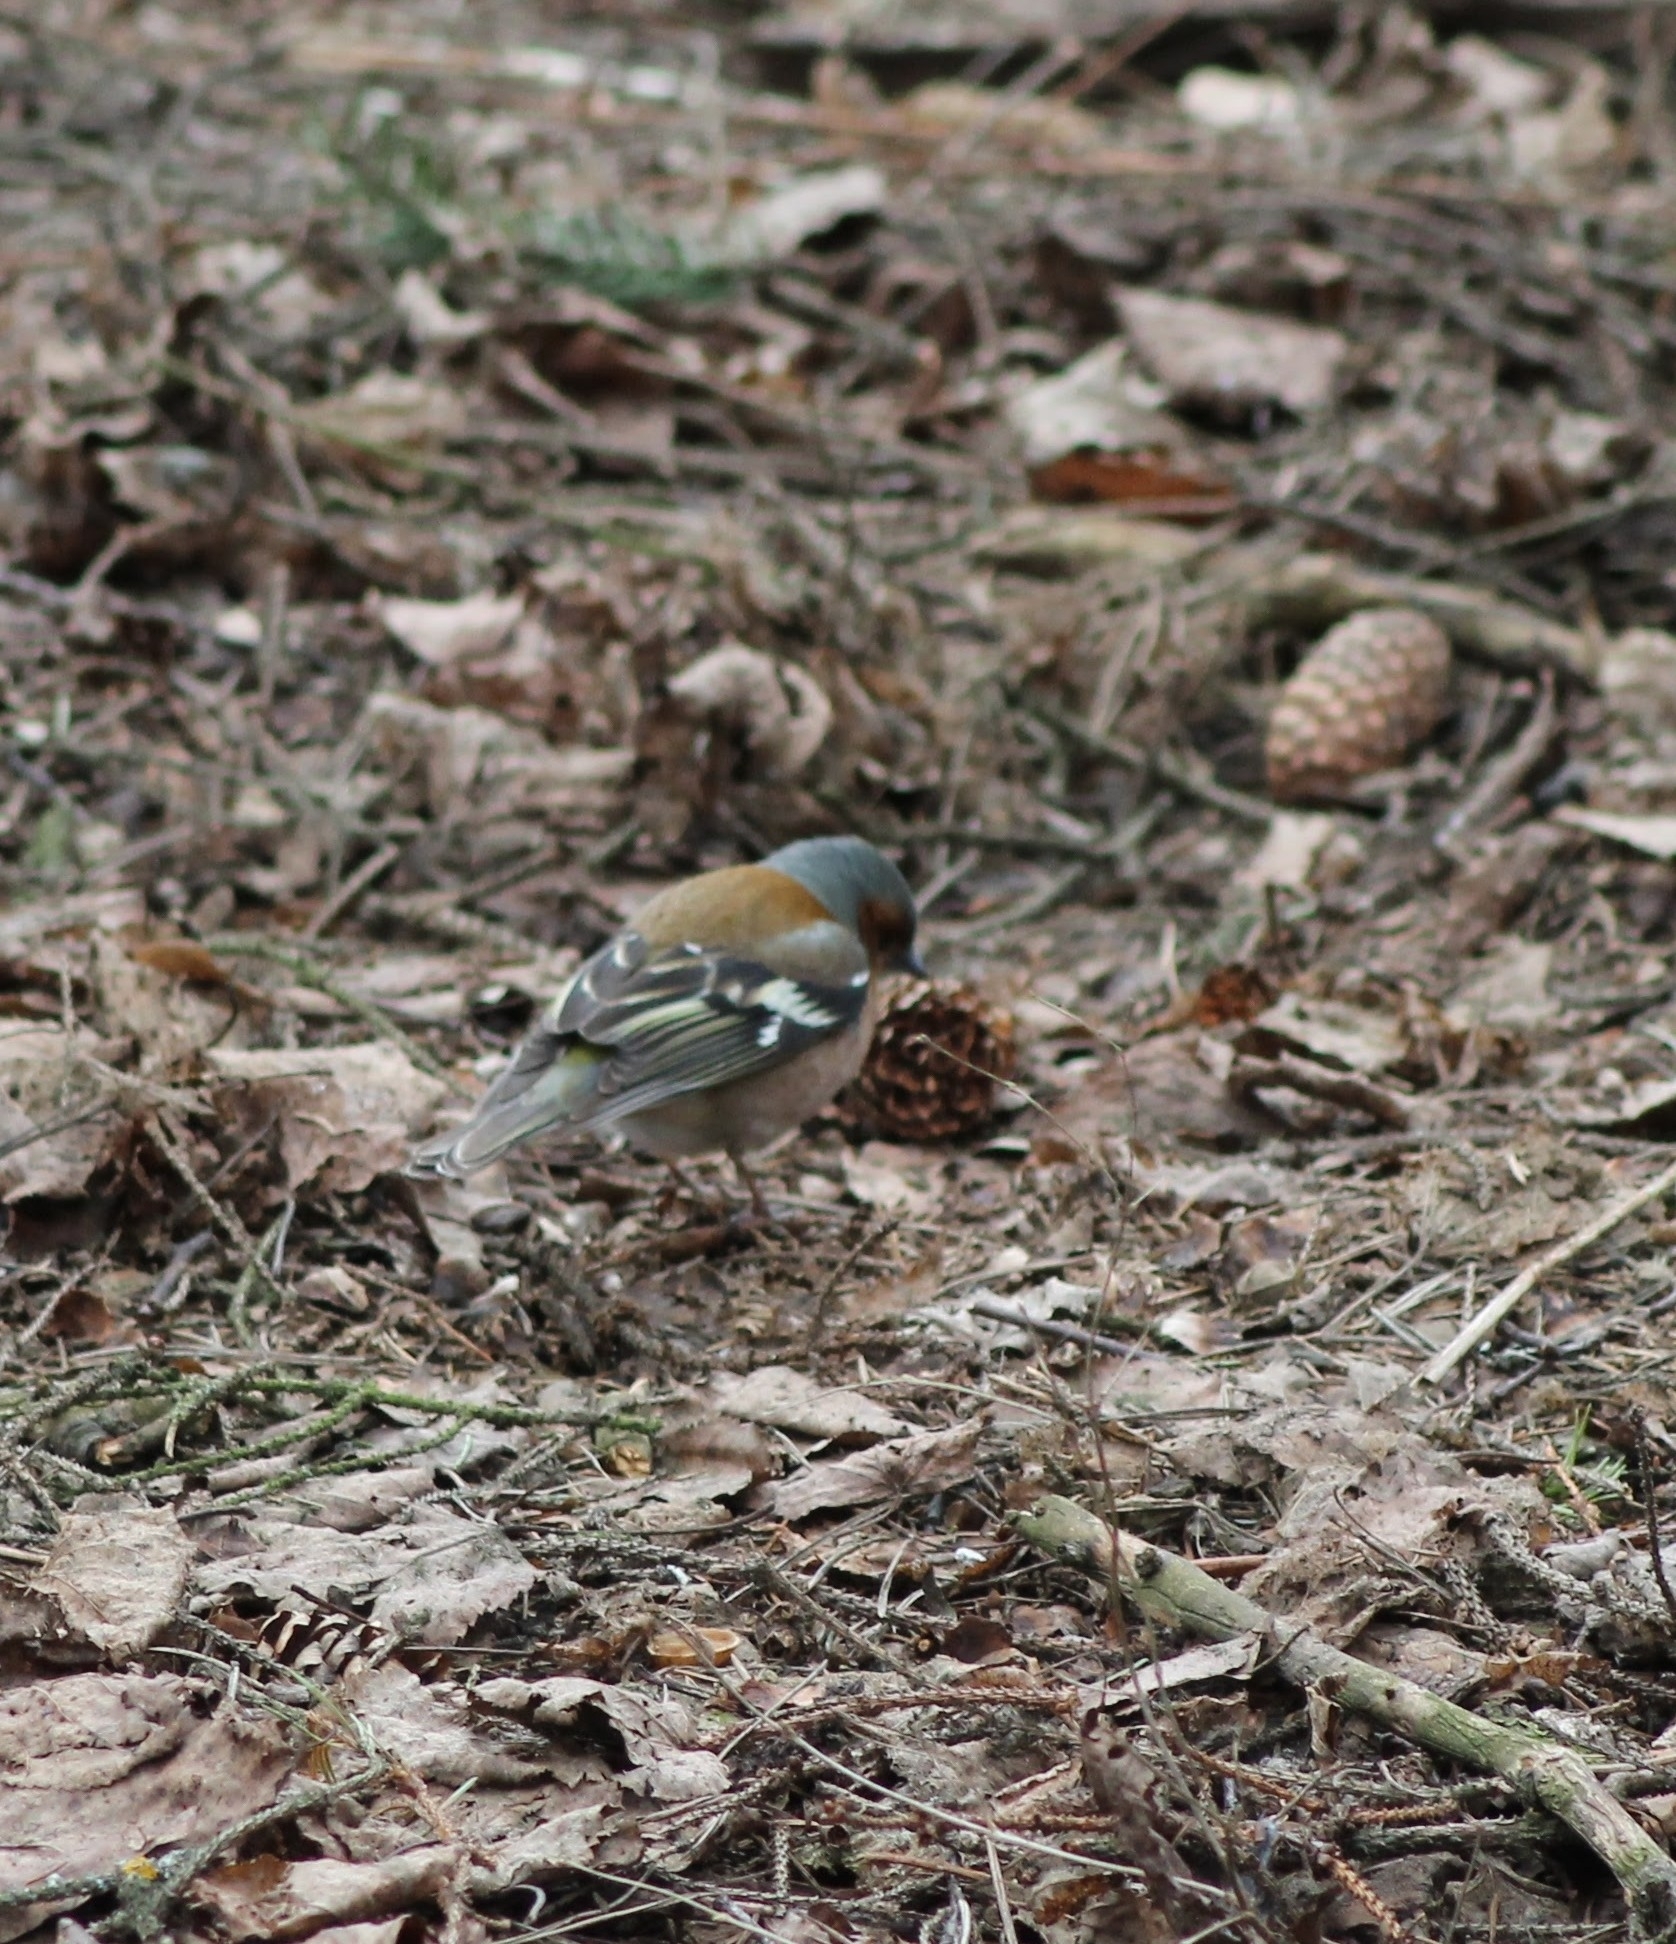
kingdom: Animalia
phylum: Chordata
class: Aves
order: Passeriformes
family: Fringillidae
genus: Fringilla
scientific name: Fringilla coelebs
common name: Common chaffinch
